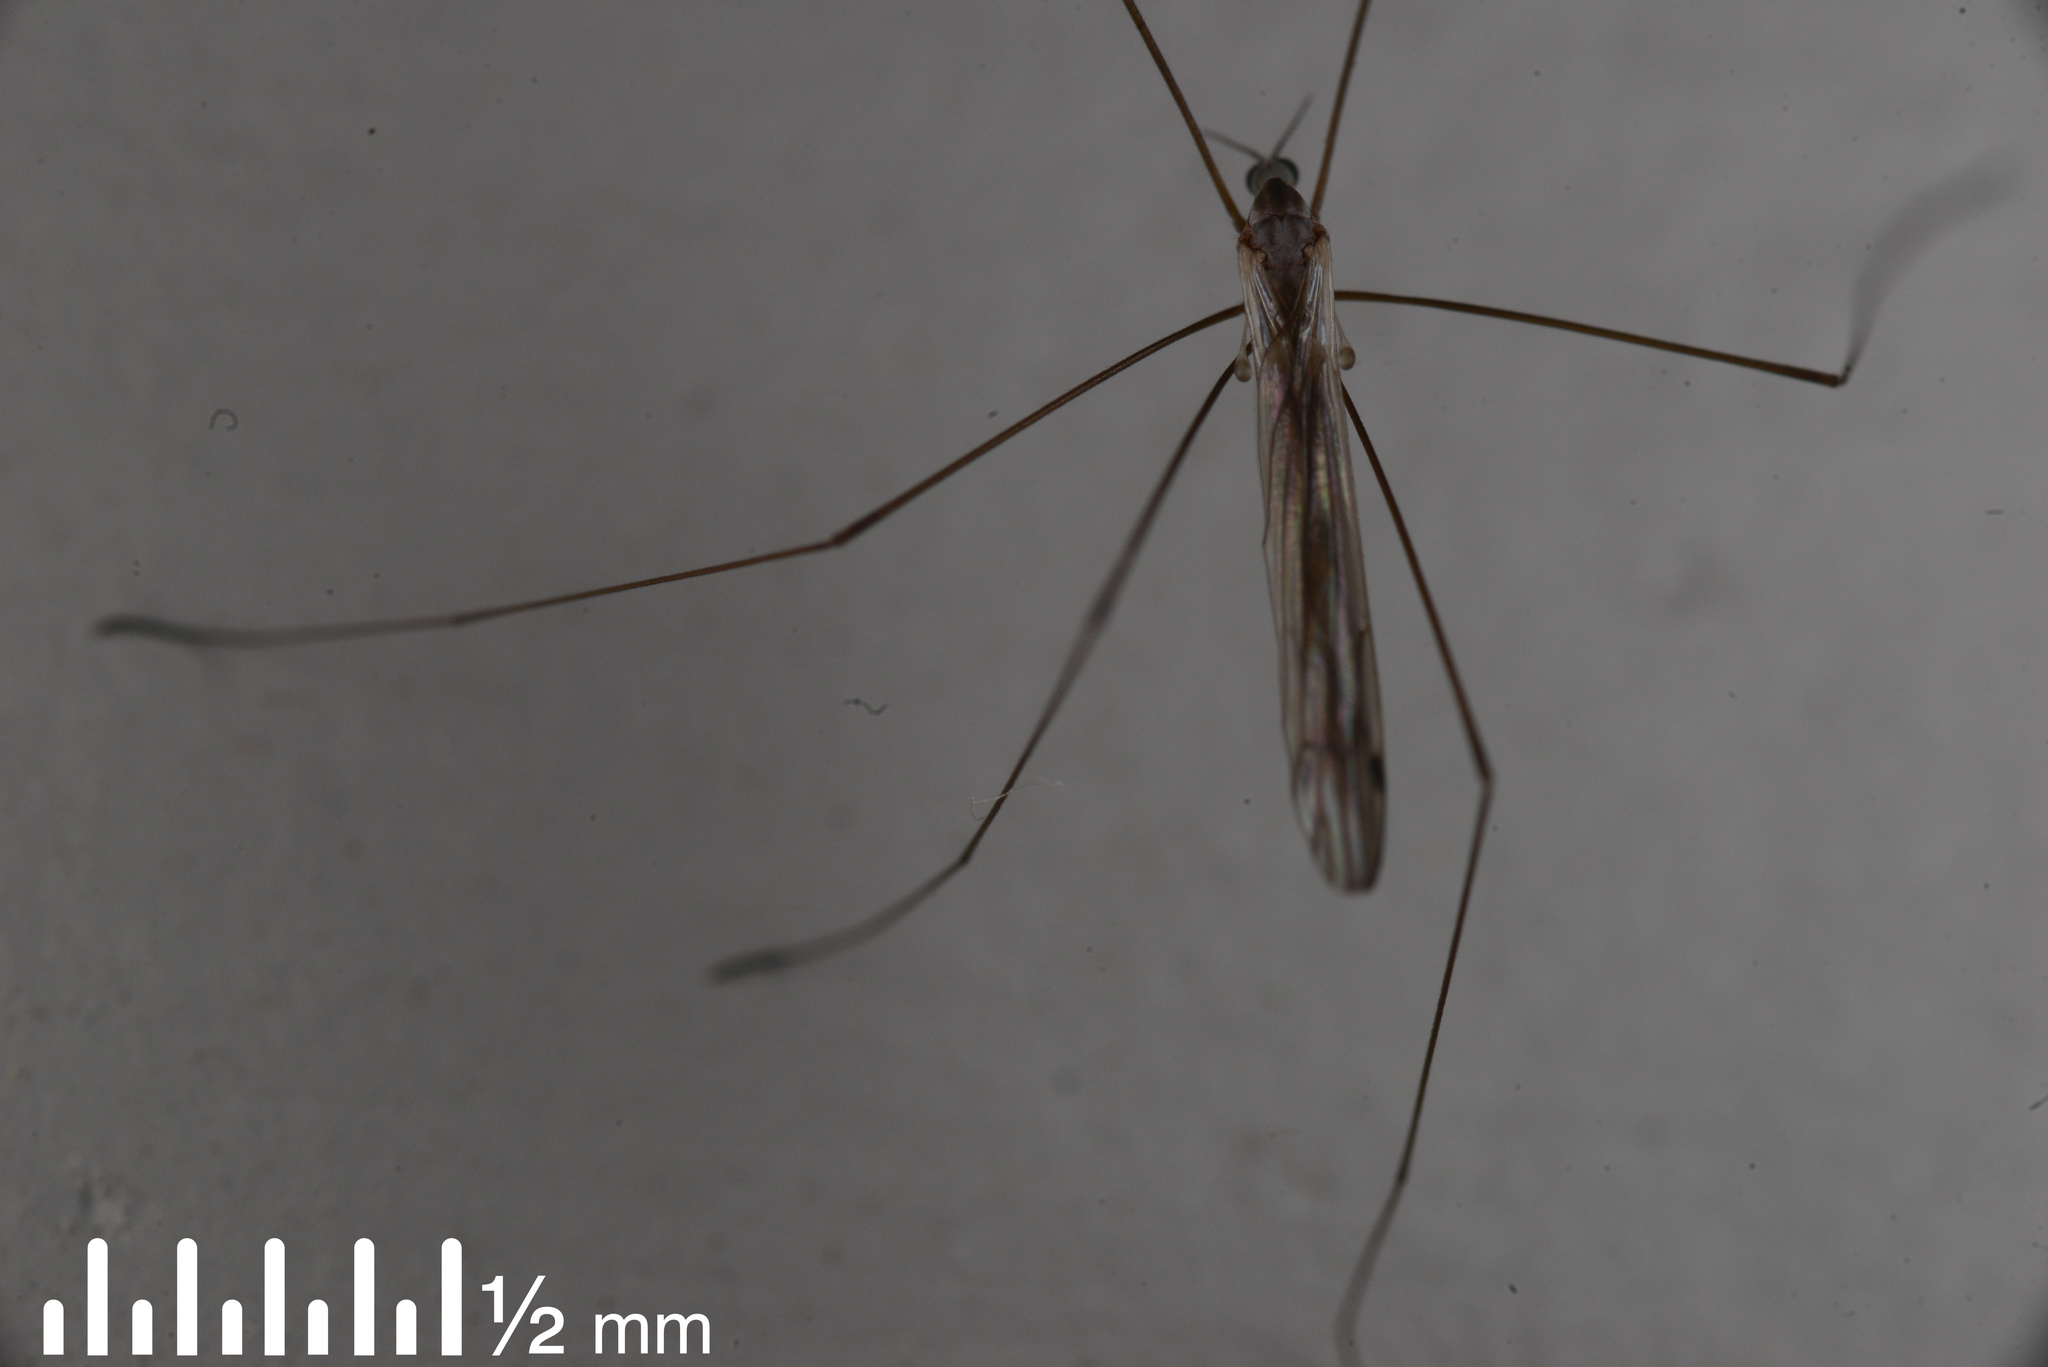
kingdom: Animalia
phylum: Arthropoda
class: Insecta
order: Diptera
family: Limoniidae
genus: Dicranomyia
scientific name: Dicranomyia aegrotans
